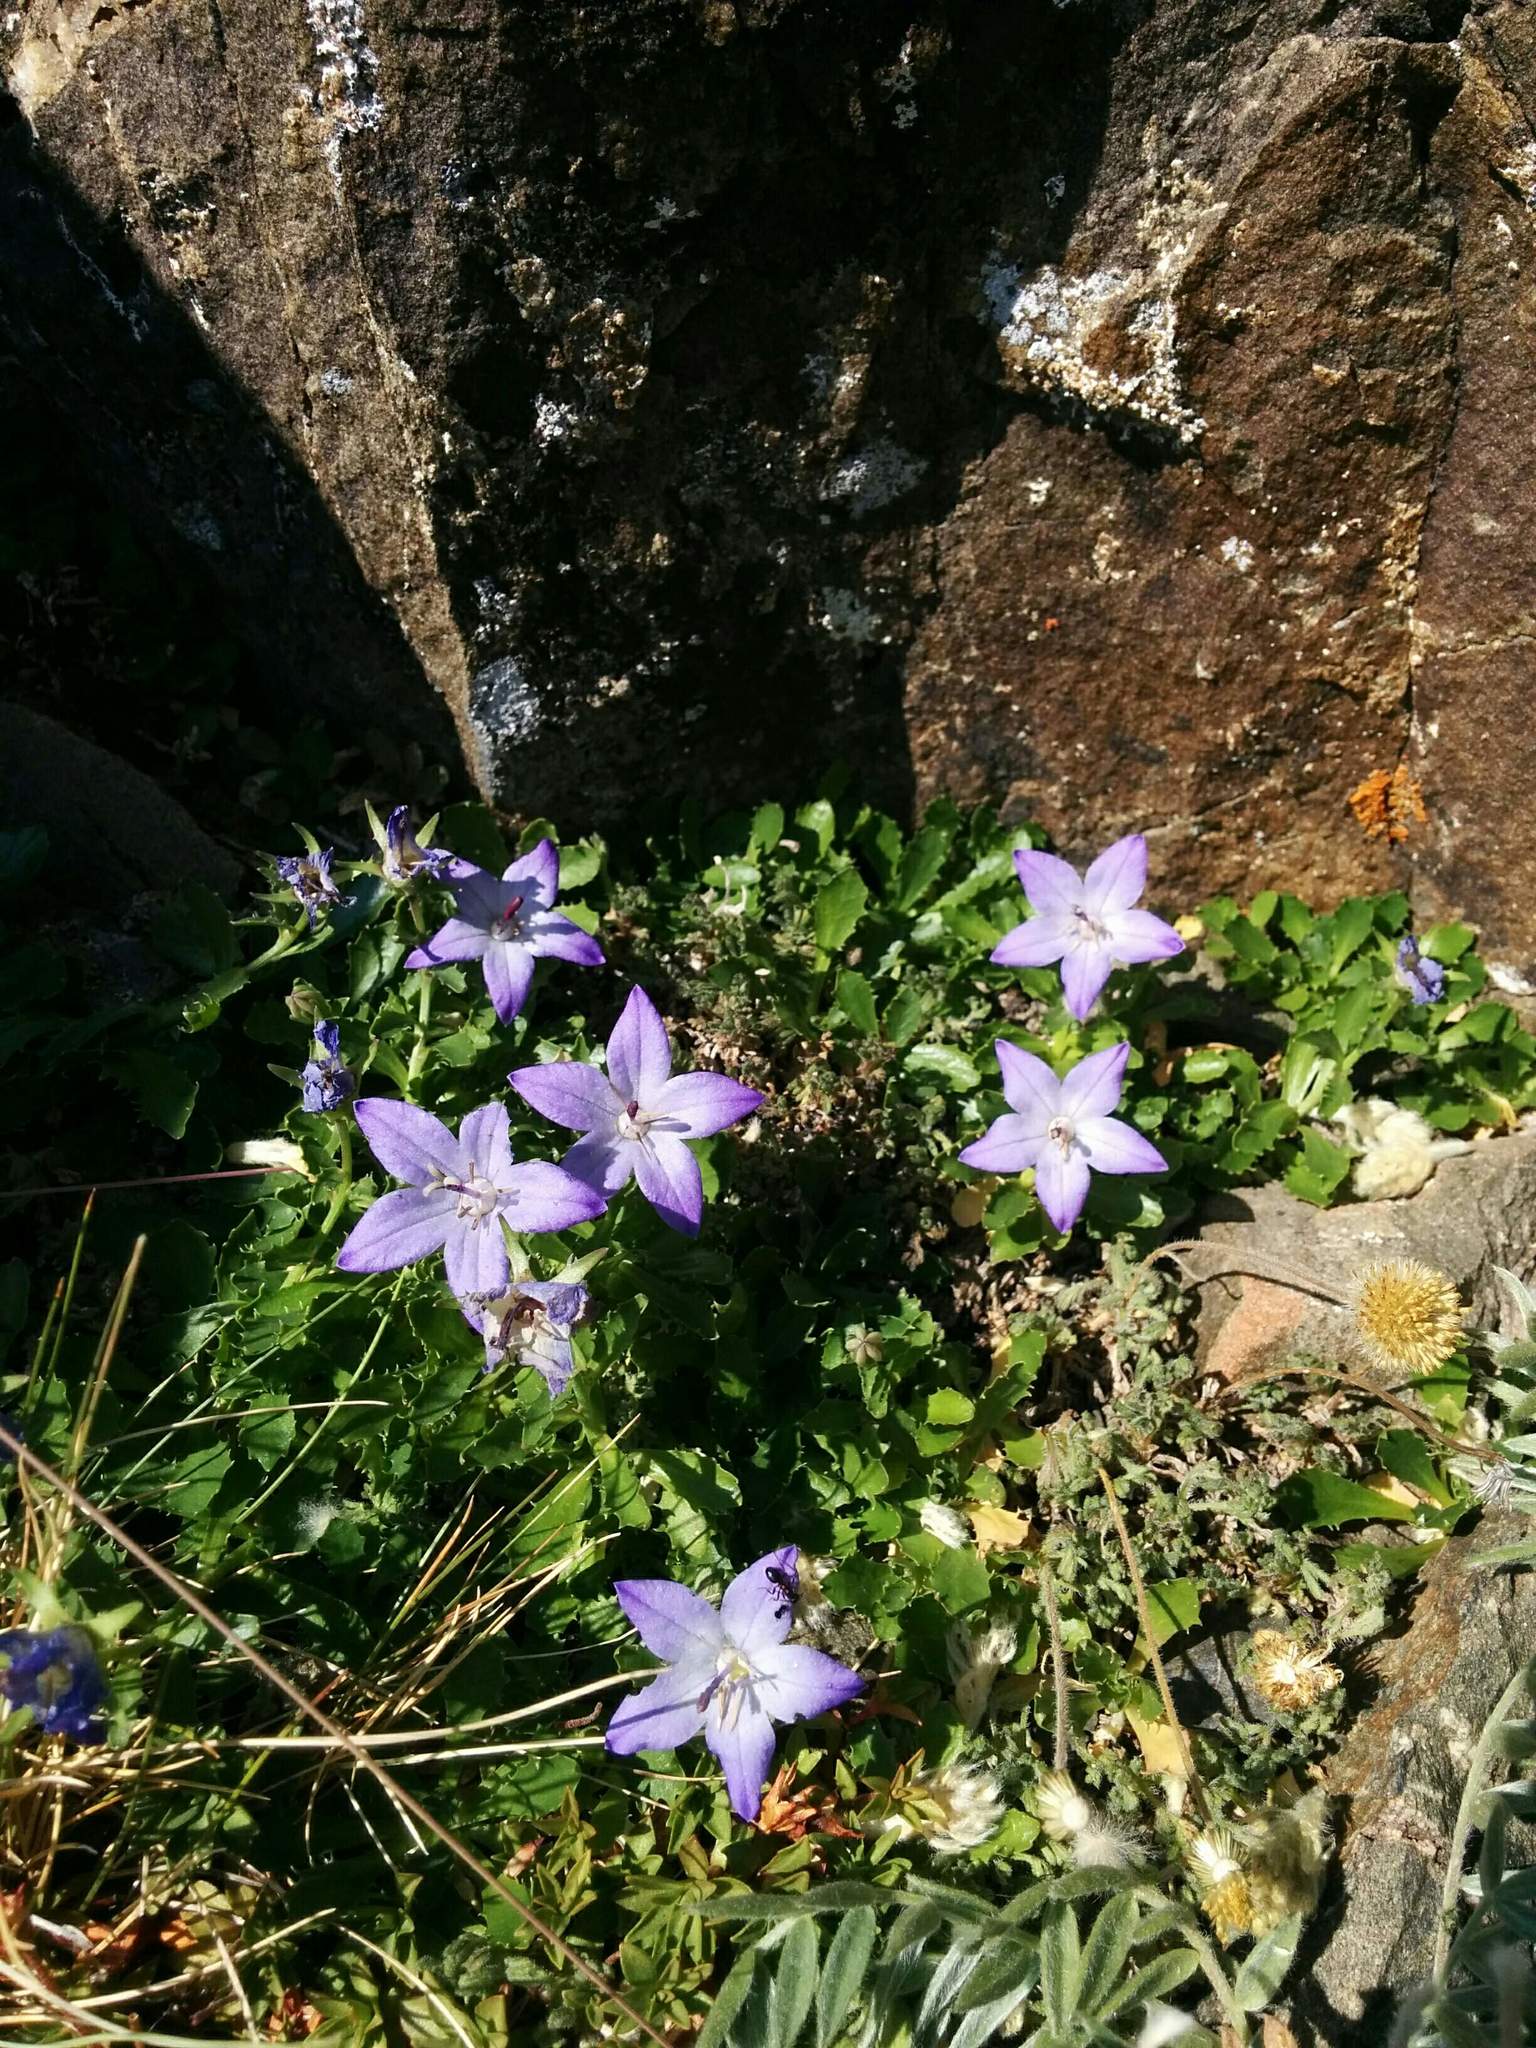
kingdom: Plantae
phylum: Tracheophyta
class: Magnoliopsida
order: Asterales
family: Campanulaceae
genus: Campanula
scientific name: Campanula piperi
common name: Olympic bellflower
